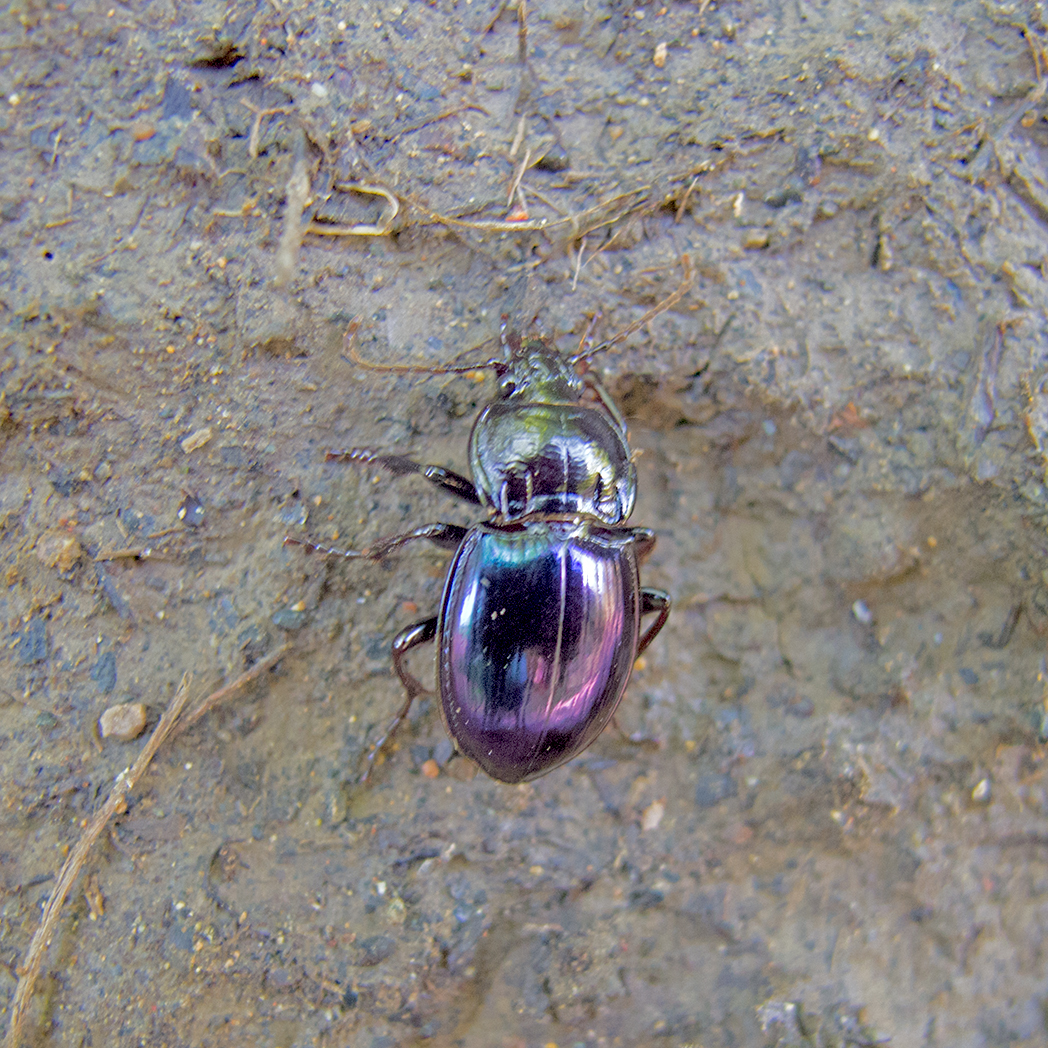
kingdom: Animalia
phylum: Arthropoda
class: Insecta
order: Coleoptera
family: Carabidae
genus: Myas
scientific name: Myas chalybaeus
